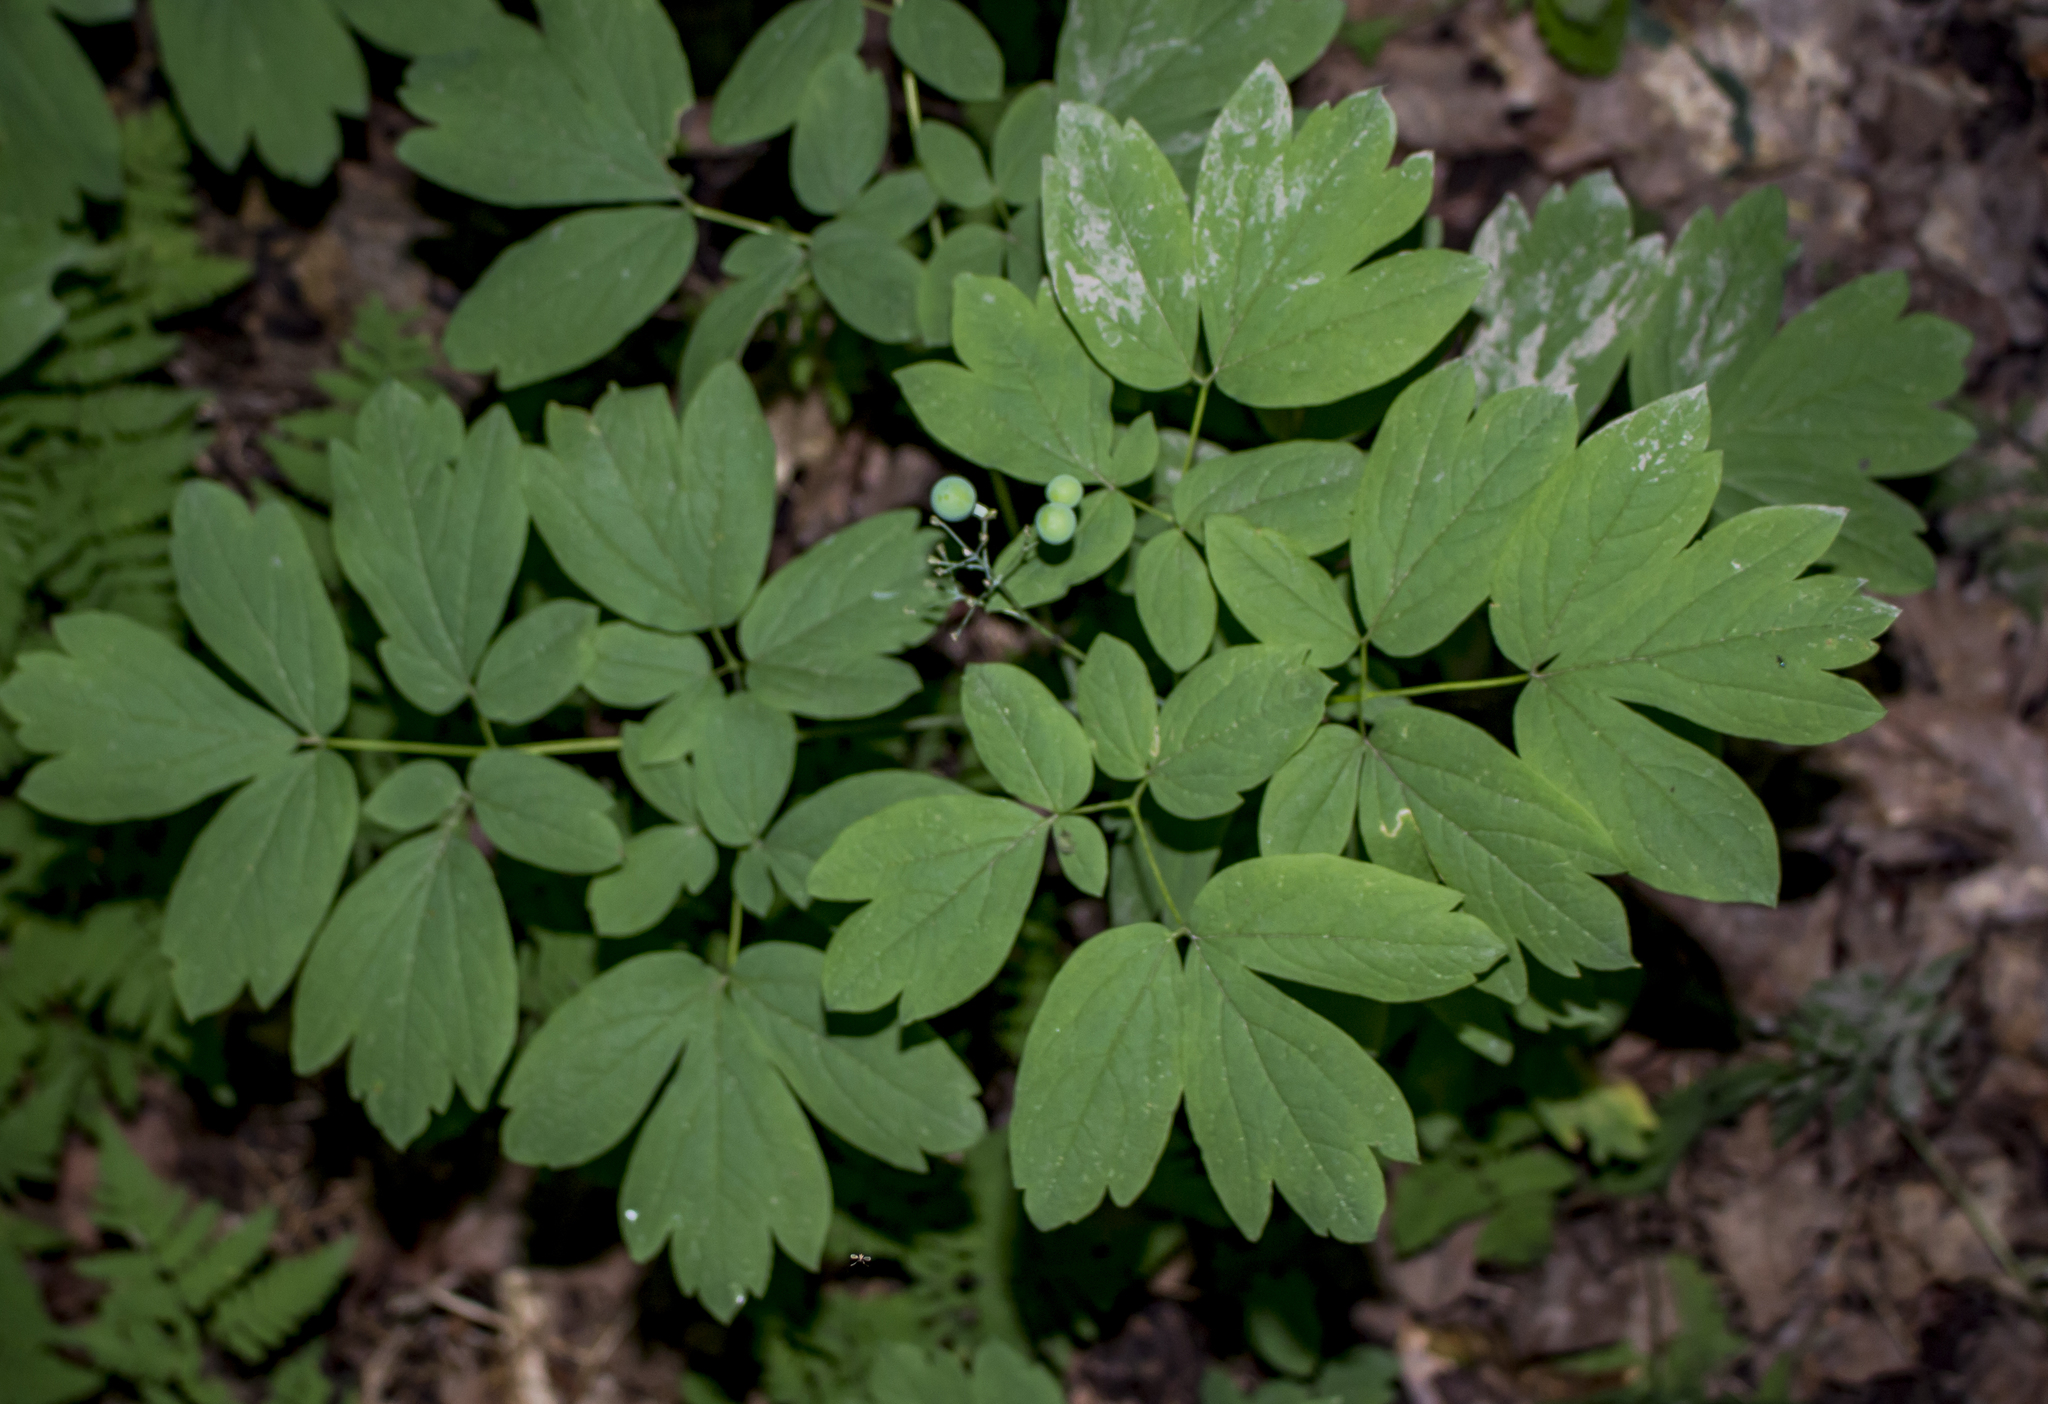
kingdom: Plantae
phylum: Tracheophyta
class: Magnoliopsida
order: Ranunculales
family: Berberidaceae
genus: Caulophyllum
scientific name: Caulophyllum thalictroides
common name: Blue cohosh
